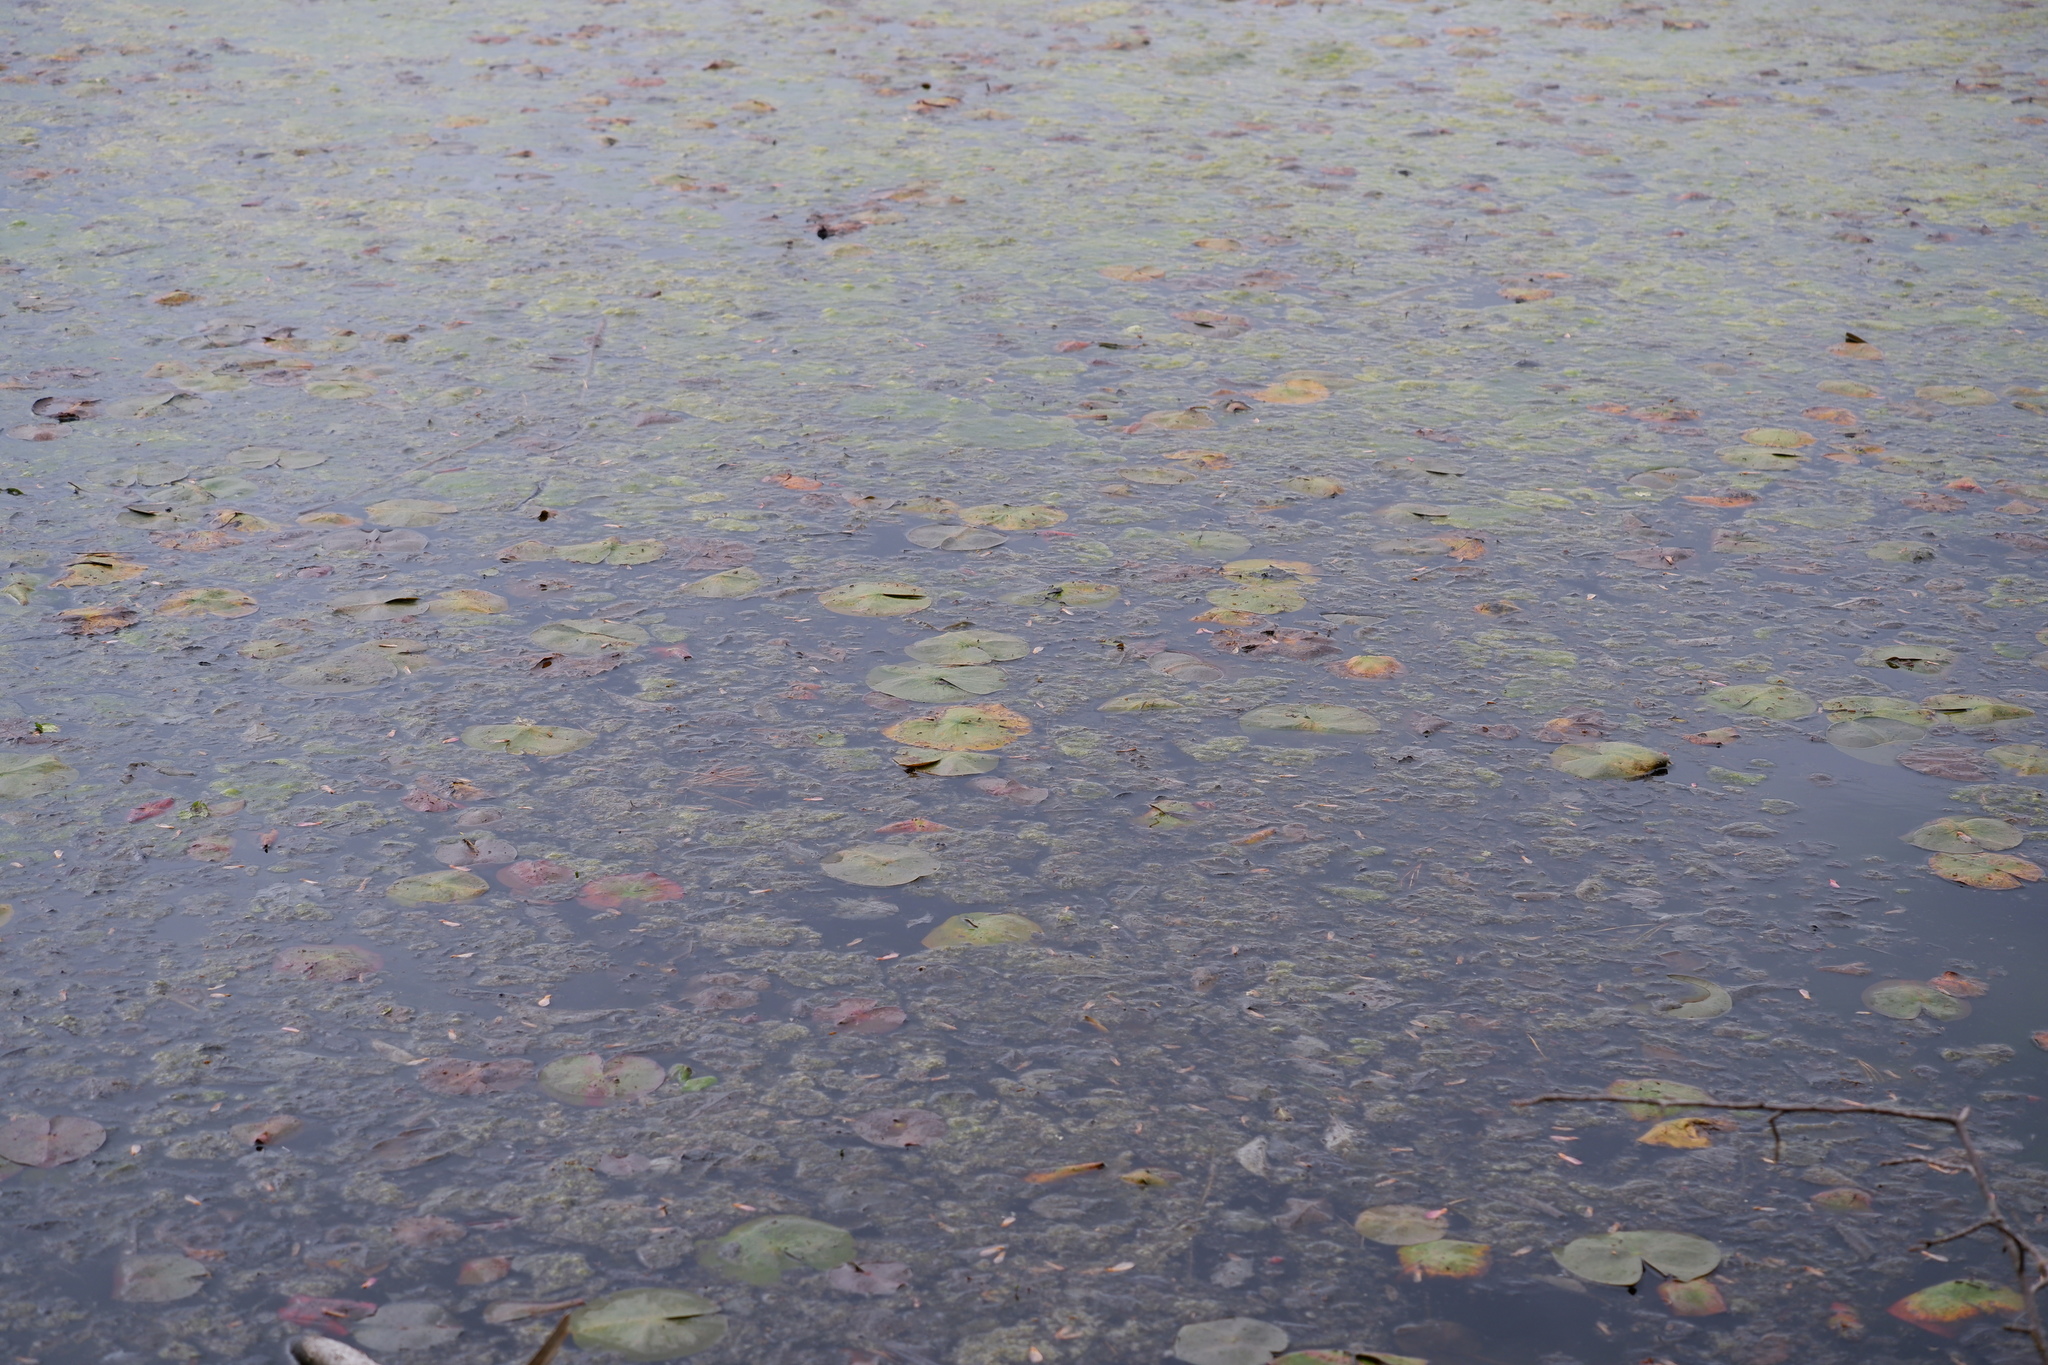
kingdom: Plantae
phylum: Tracheophyta
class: Magnoliopsida
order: Nymphaeales
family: Nymphaeaceae
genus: Nymphaea
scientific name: Nymphaea odorata
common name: Fragrant water-lily
